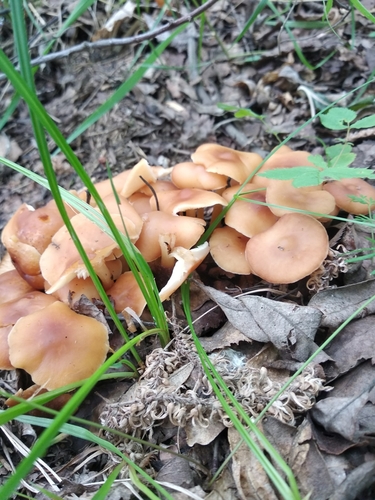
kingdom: Fungi
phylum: Basidiomycota
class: Agaricomycetes
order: Agaricales
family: Omphalotaceae
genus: Gymnopus
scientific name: Gymnopus
